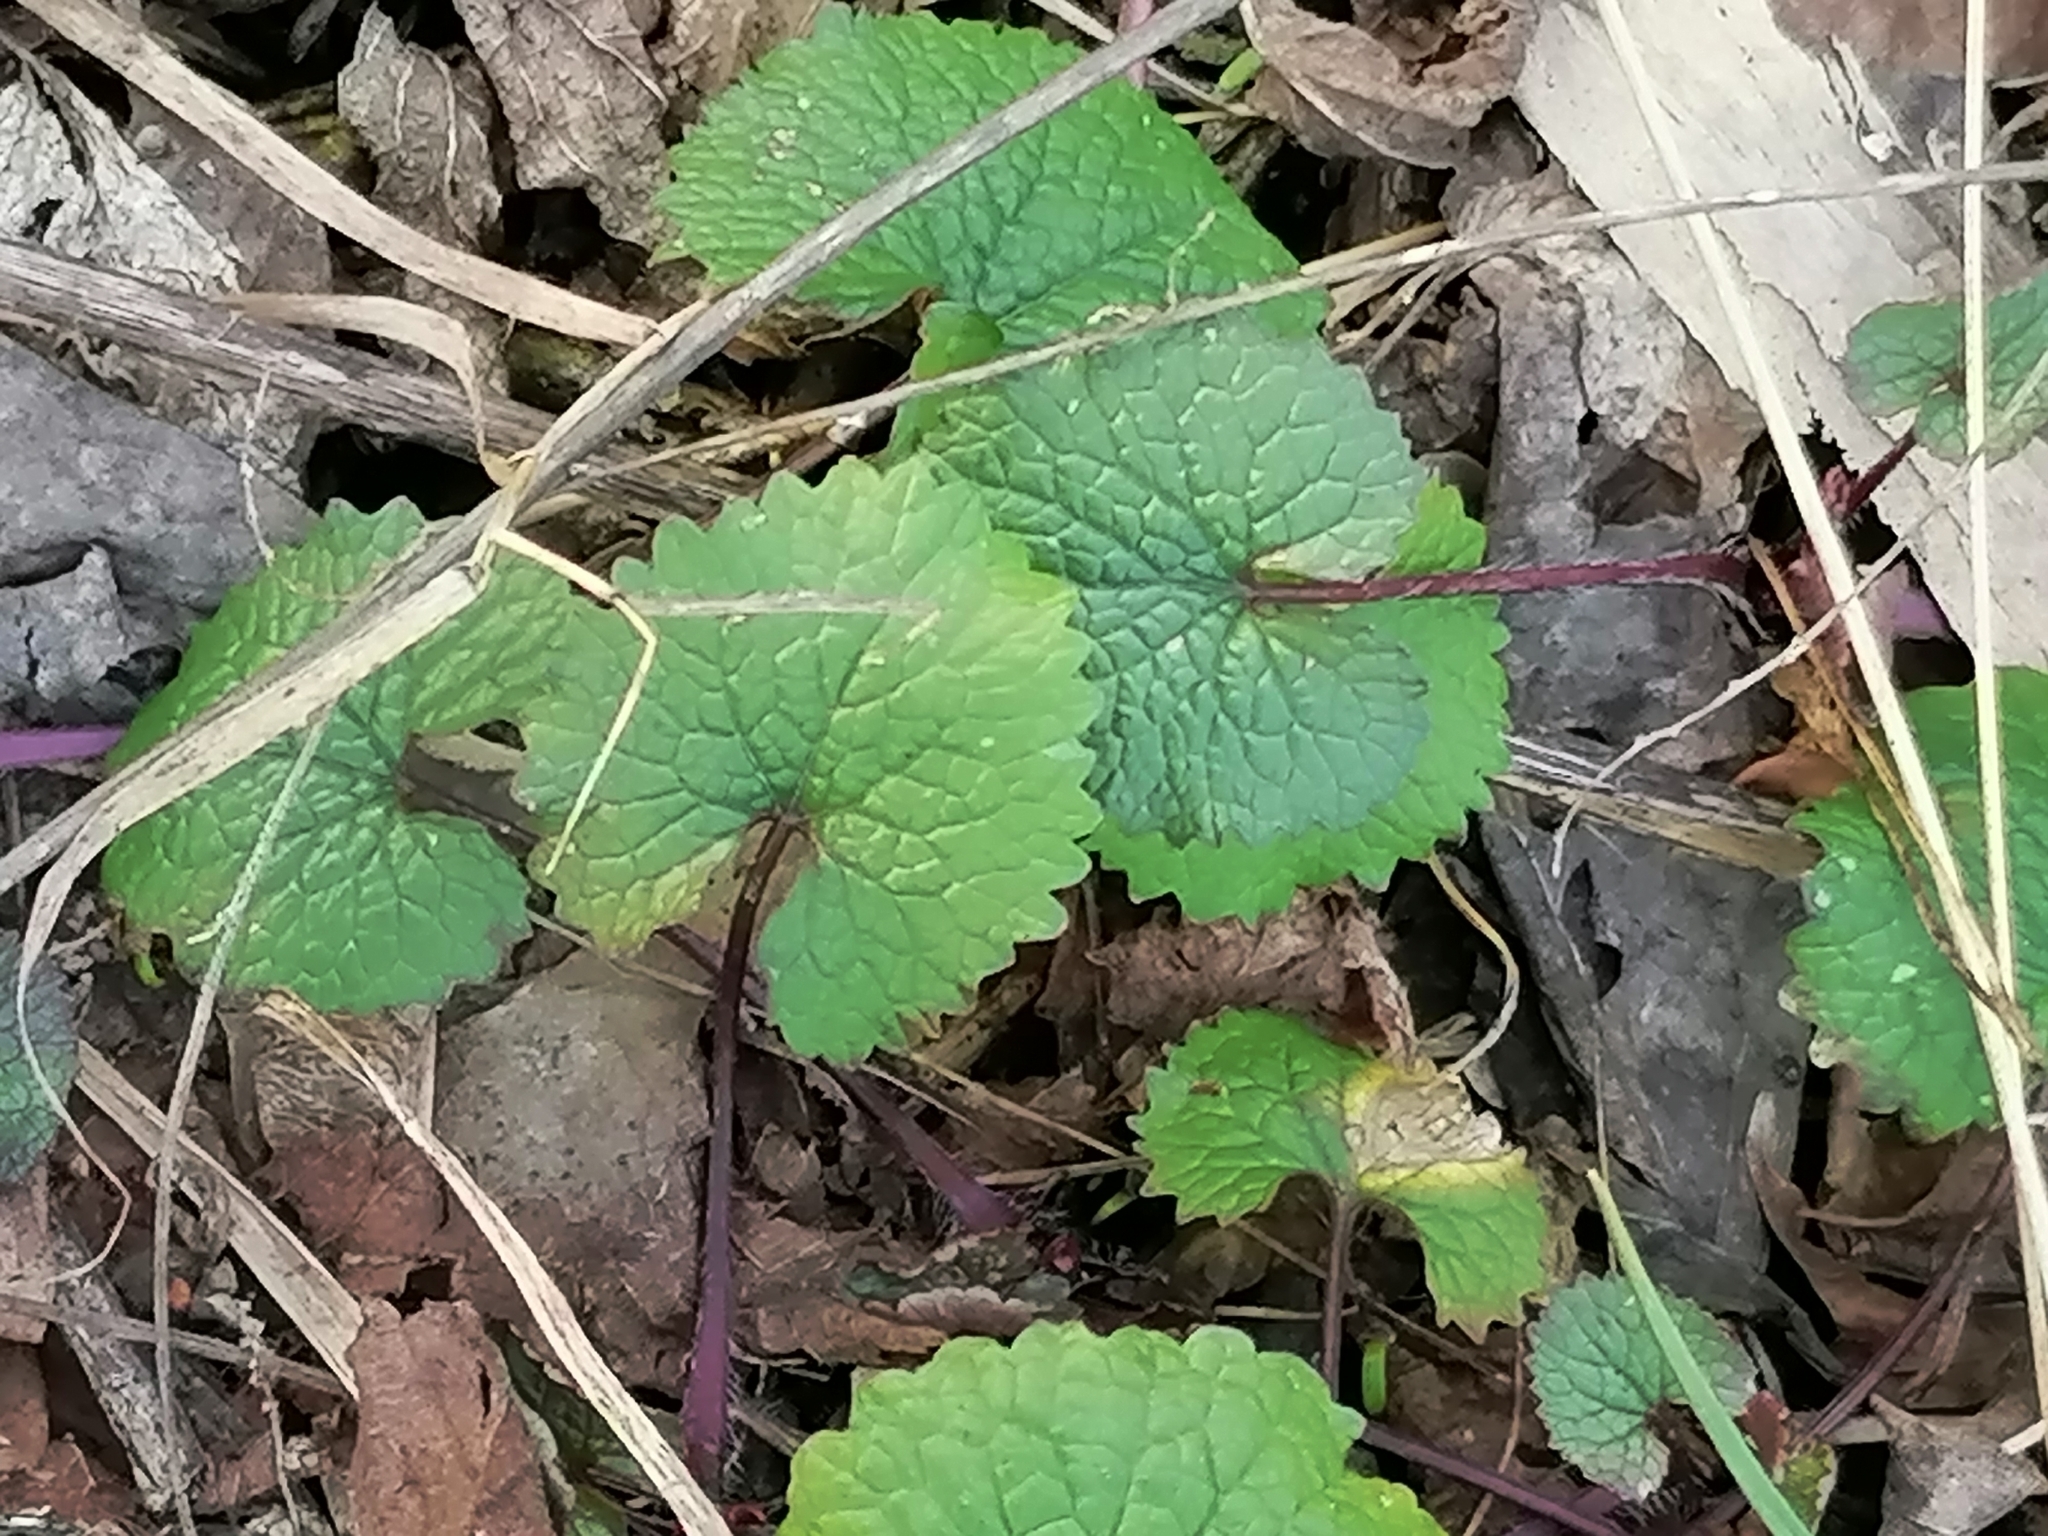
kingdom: Plantae
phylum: Tracheophyta
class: Magnoliopsida
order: Brassicales
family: Brassicaceae
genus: Alliaria
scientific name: Alliaria petiolata
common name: Garlic mustard
